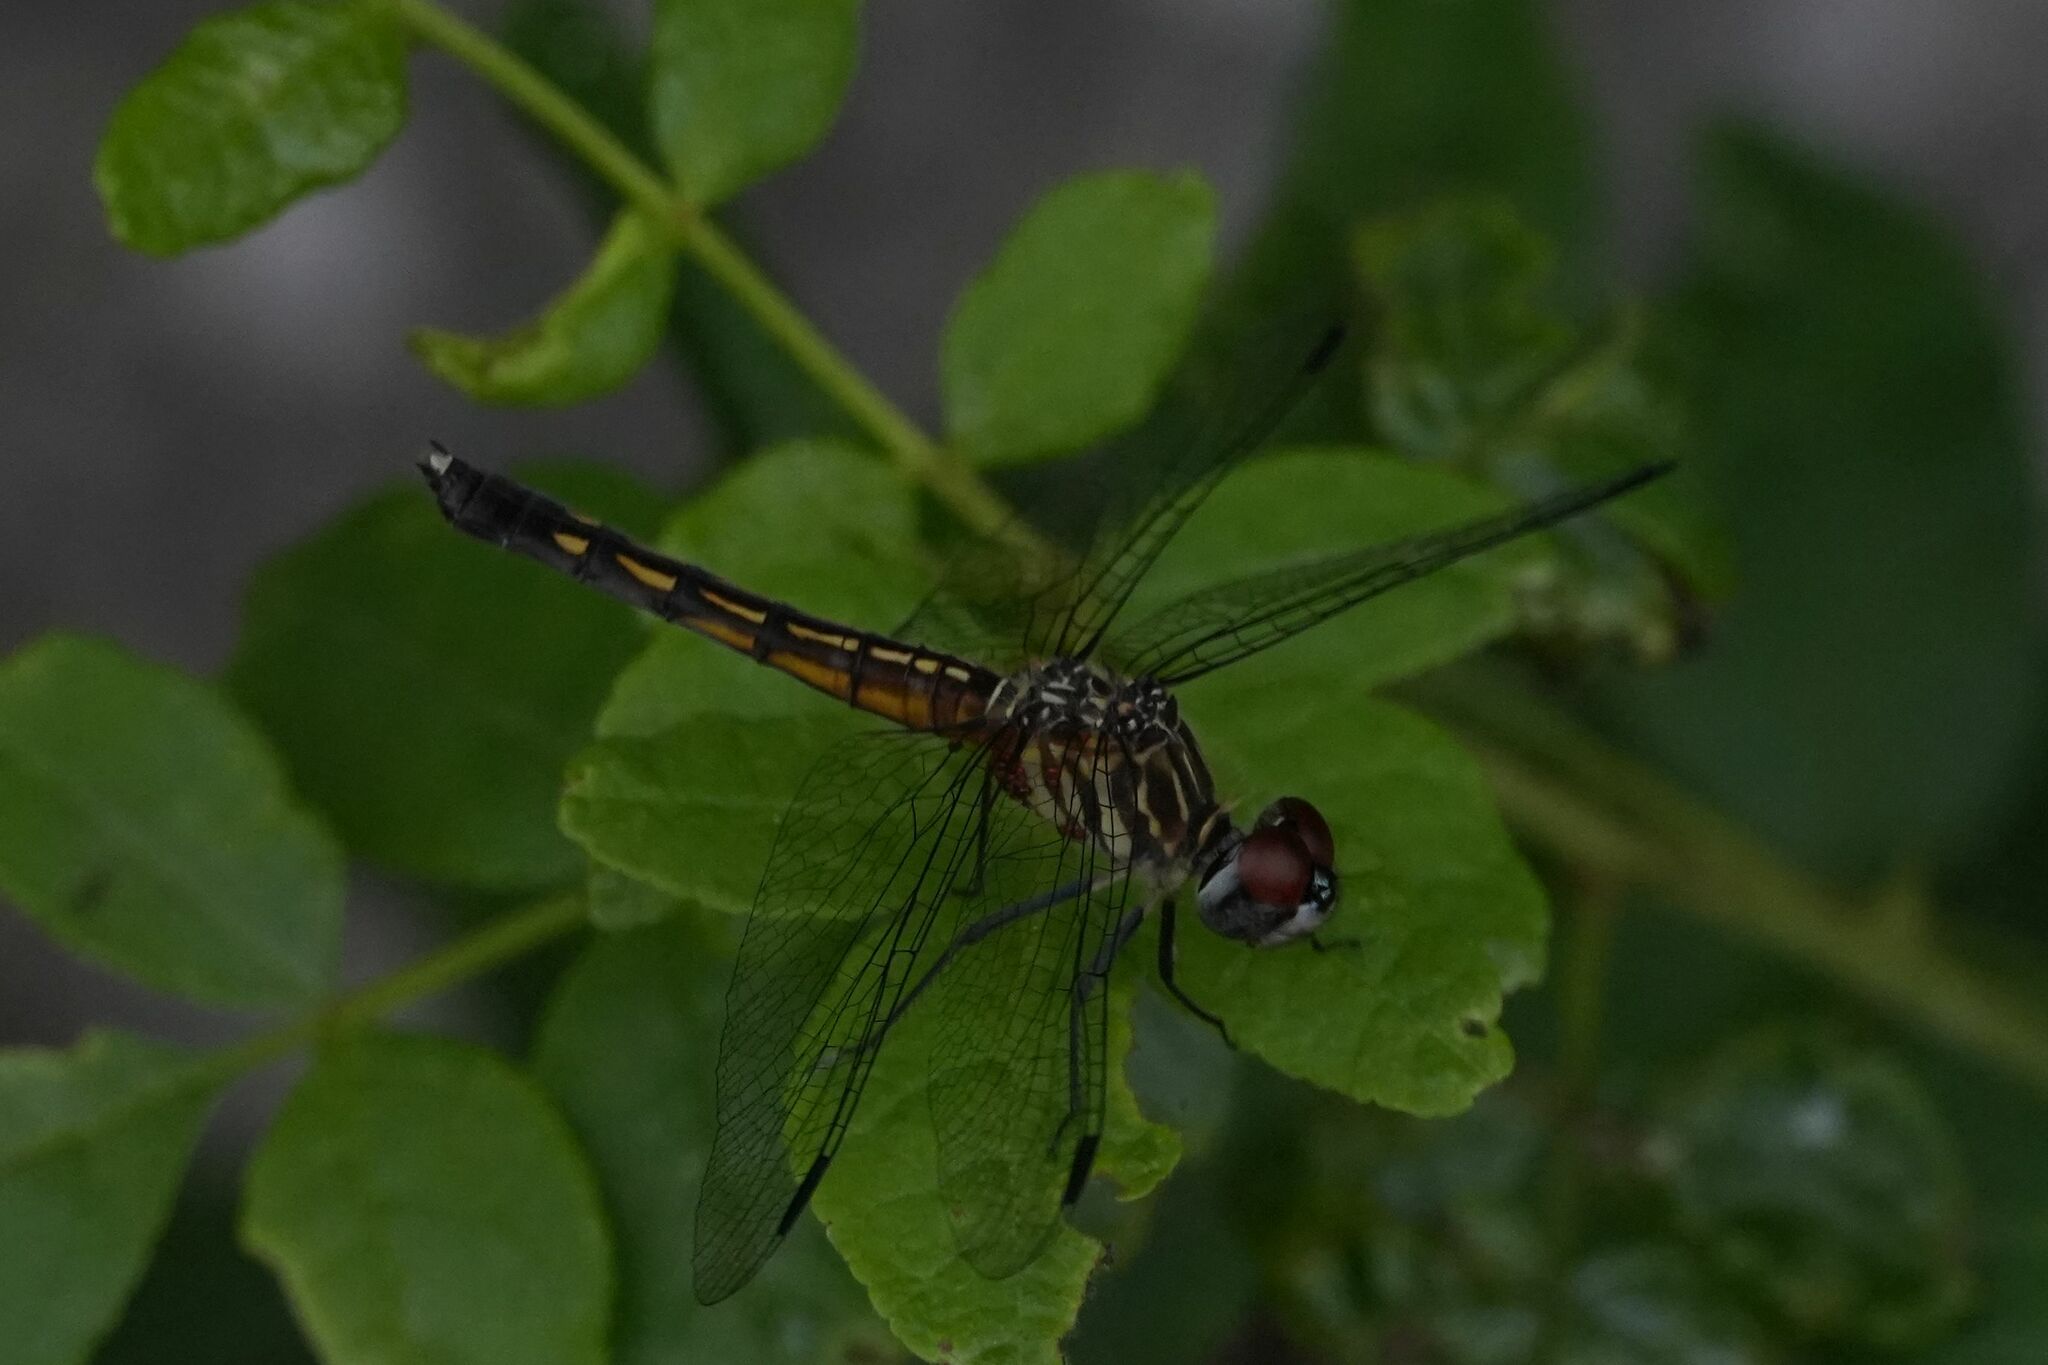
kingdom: Animalia
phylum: Arthropoda
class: Insecta
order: Odonata
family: Libellulidae
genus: Pachydiplax
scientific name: Pachydiplax longipennis
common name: Blue dasher
